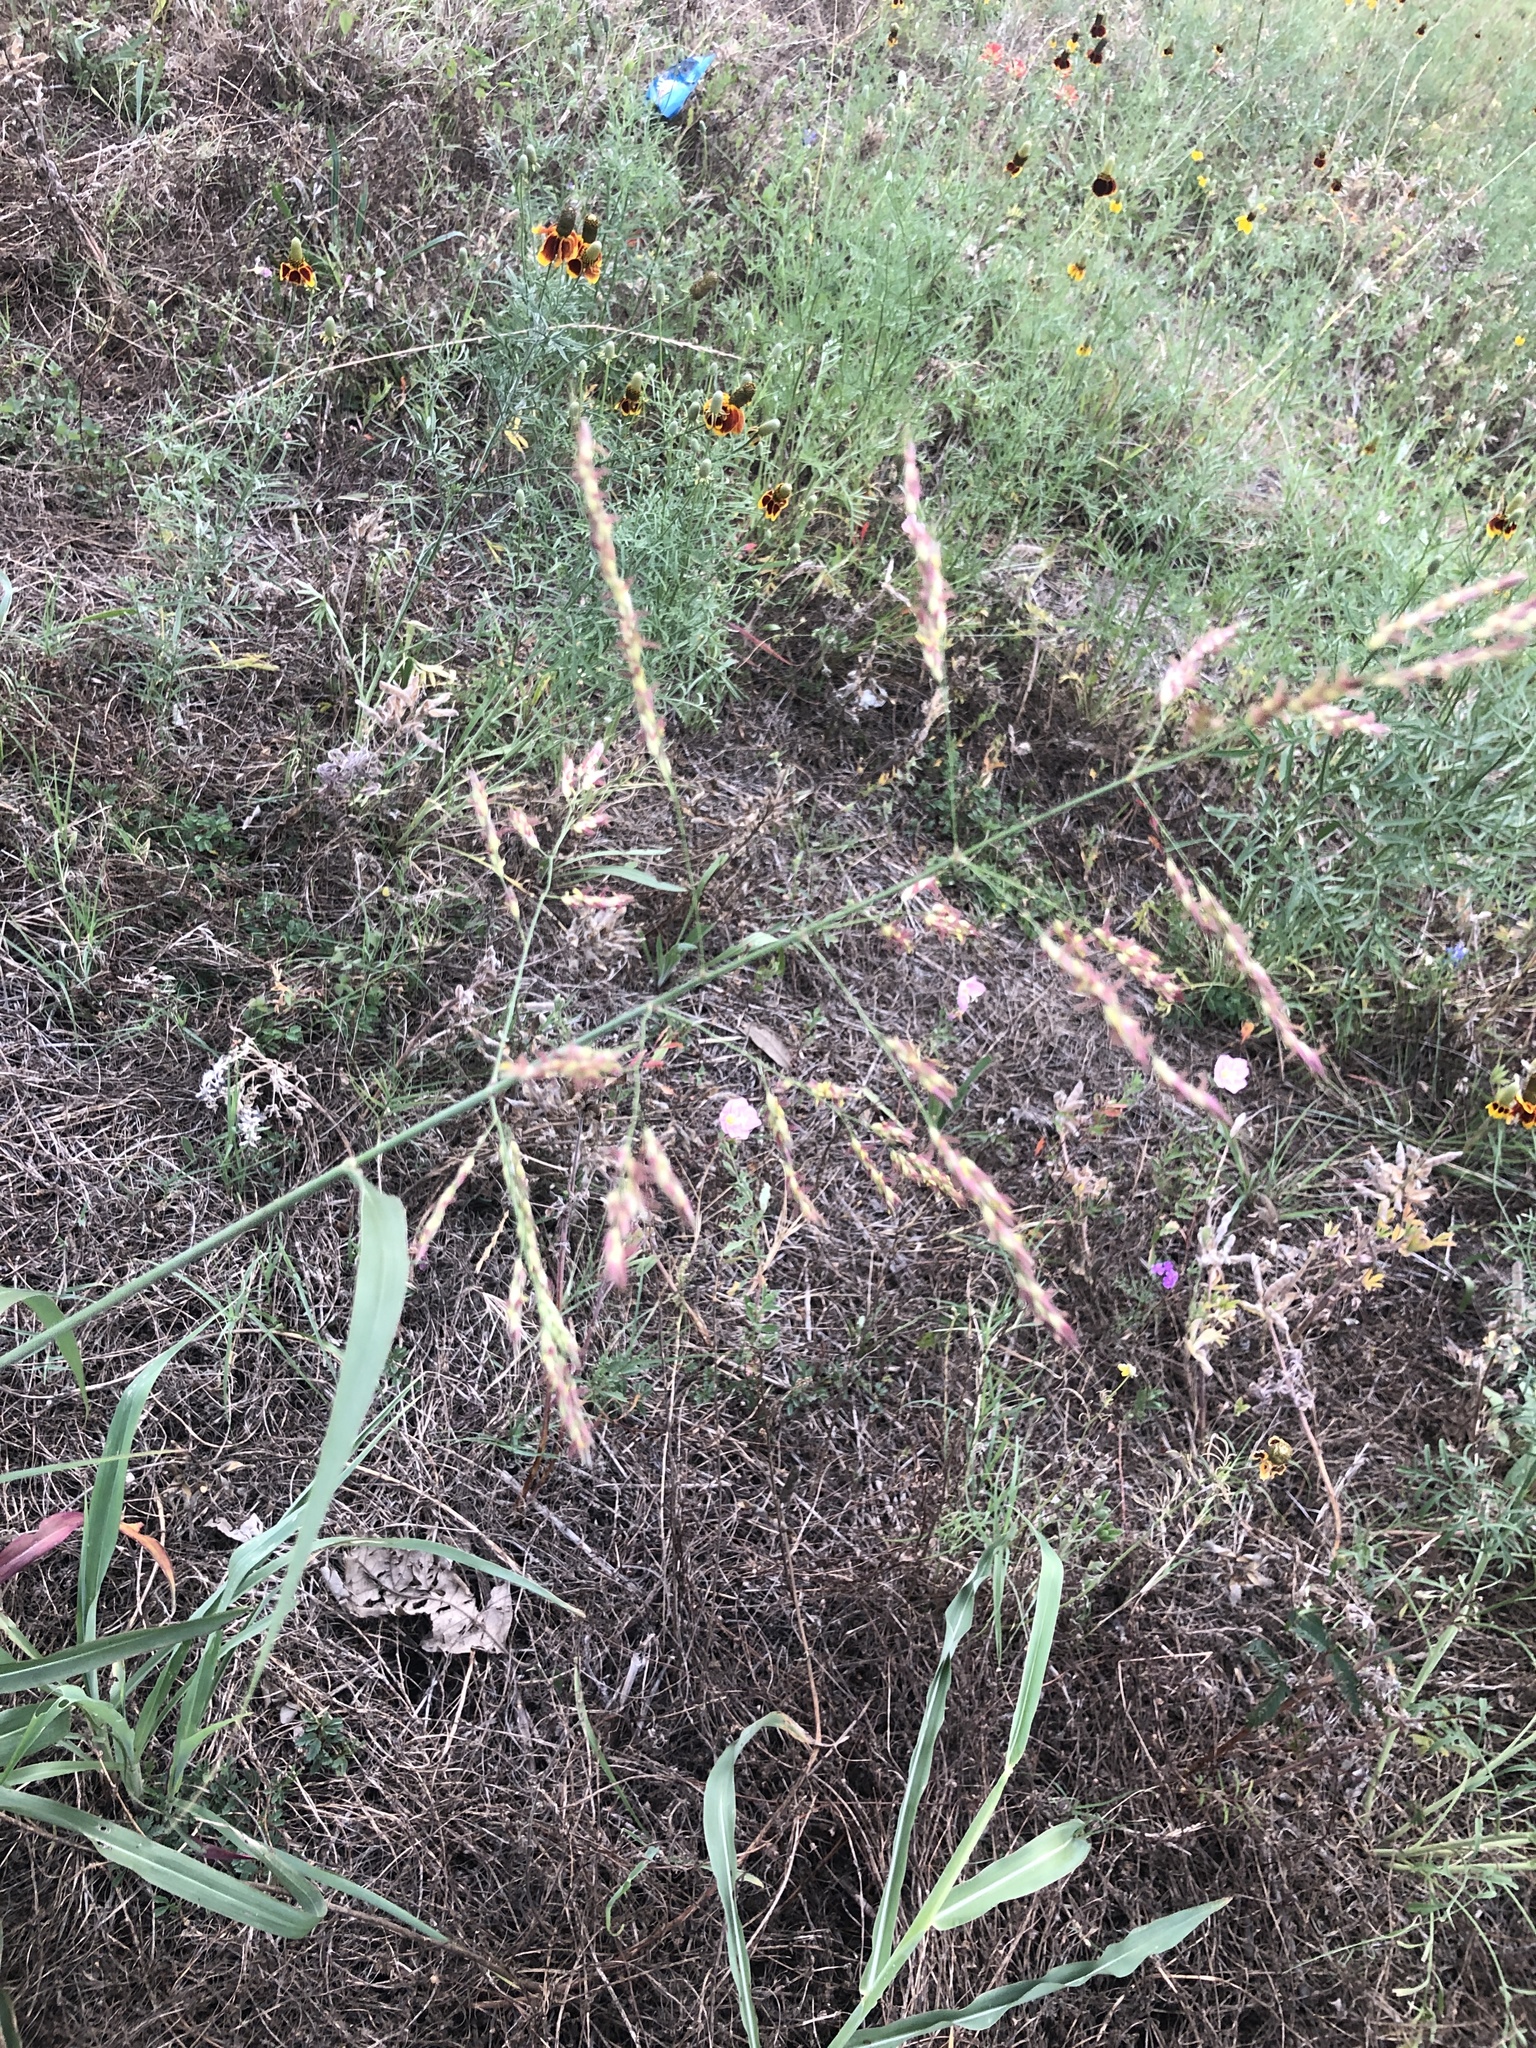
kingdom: Plantae
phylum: Tracheophyta
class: Liliopsida
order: Poales
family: Poaceae
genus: Sorghum
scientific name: Sorghum halepense
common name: Johnson-grass
